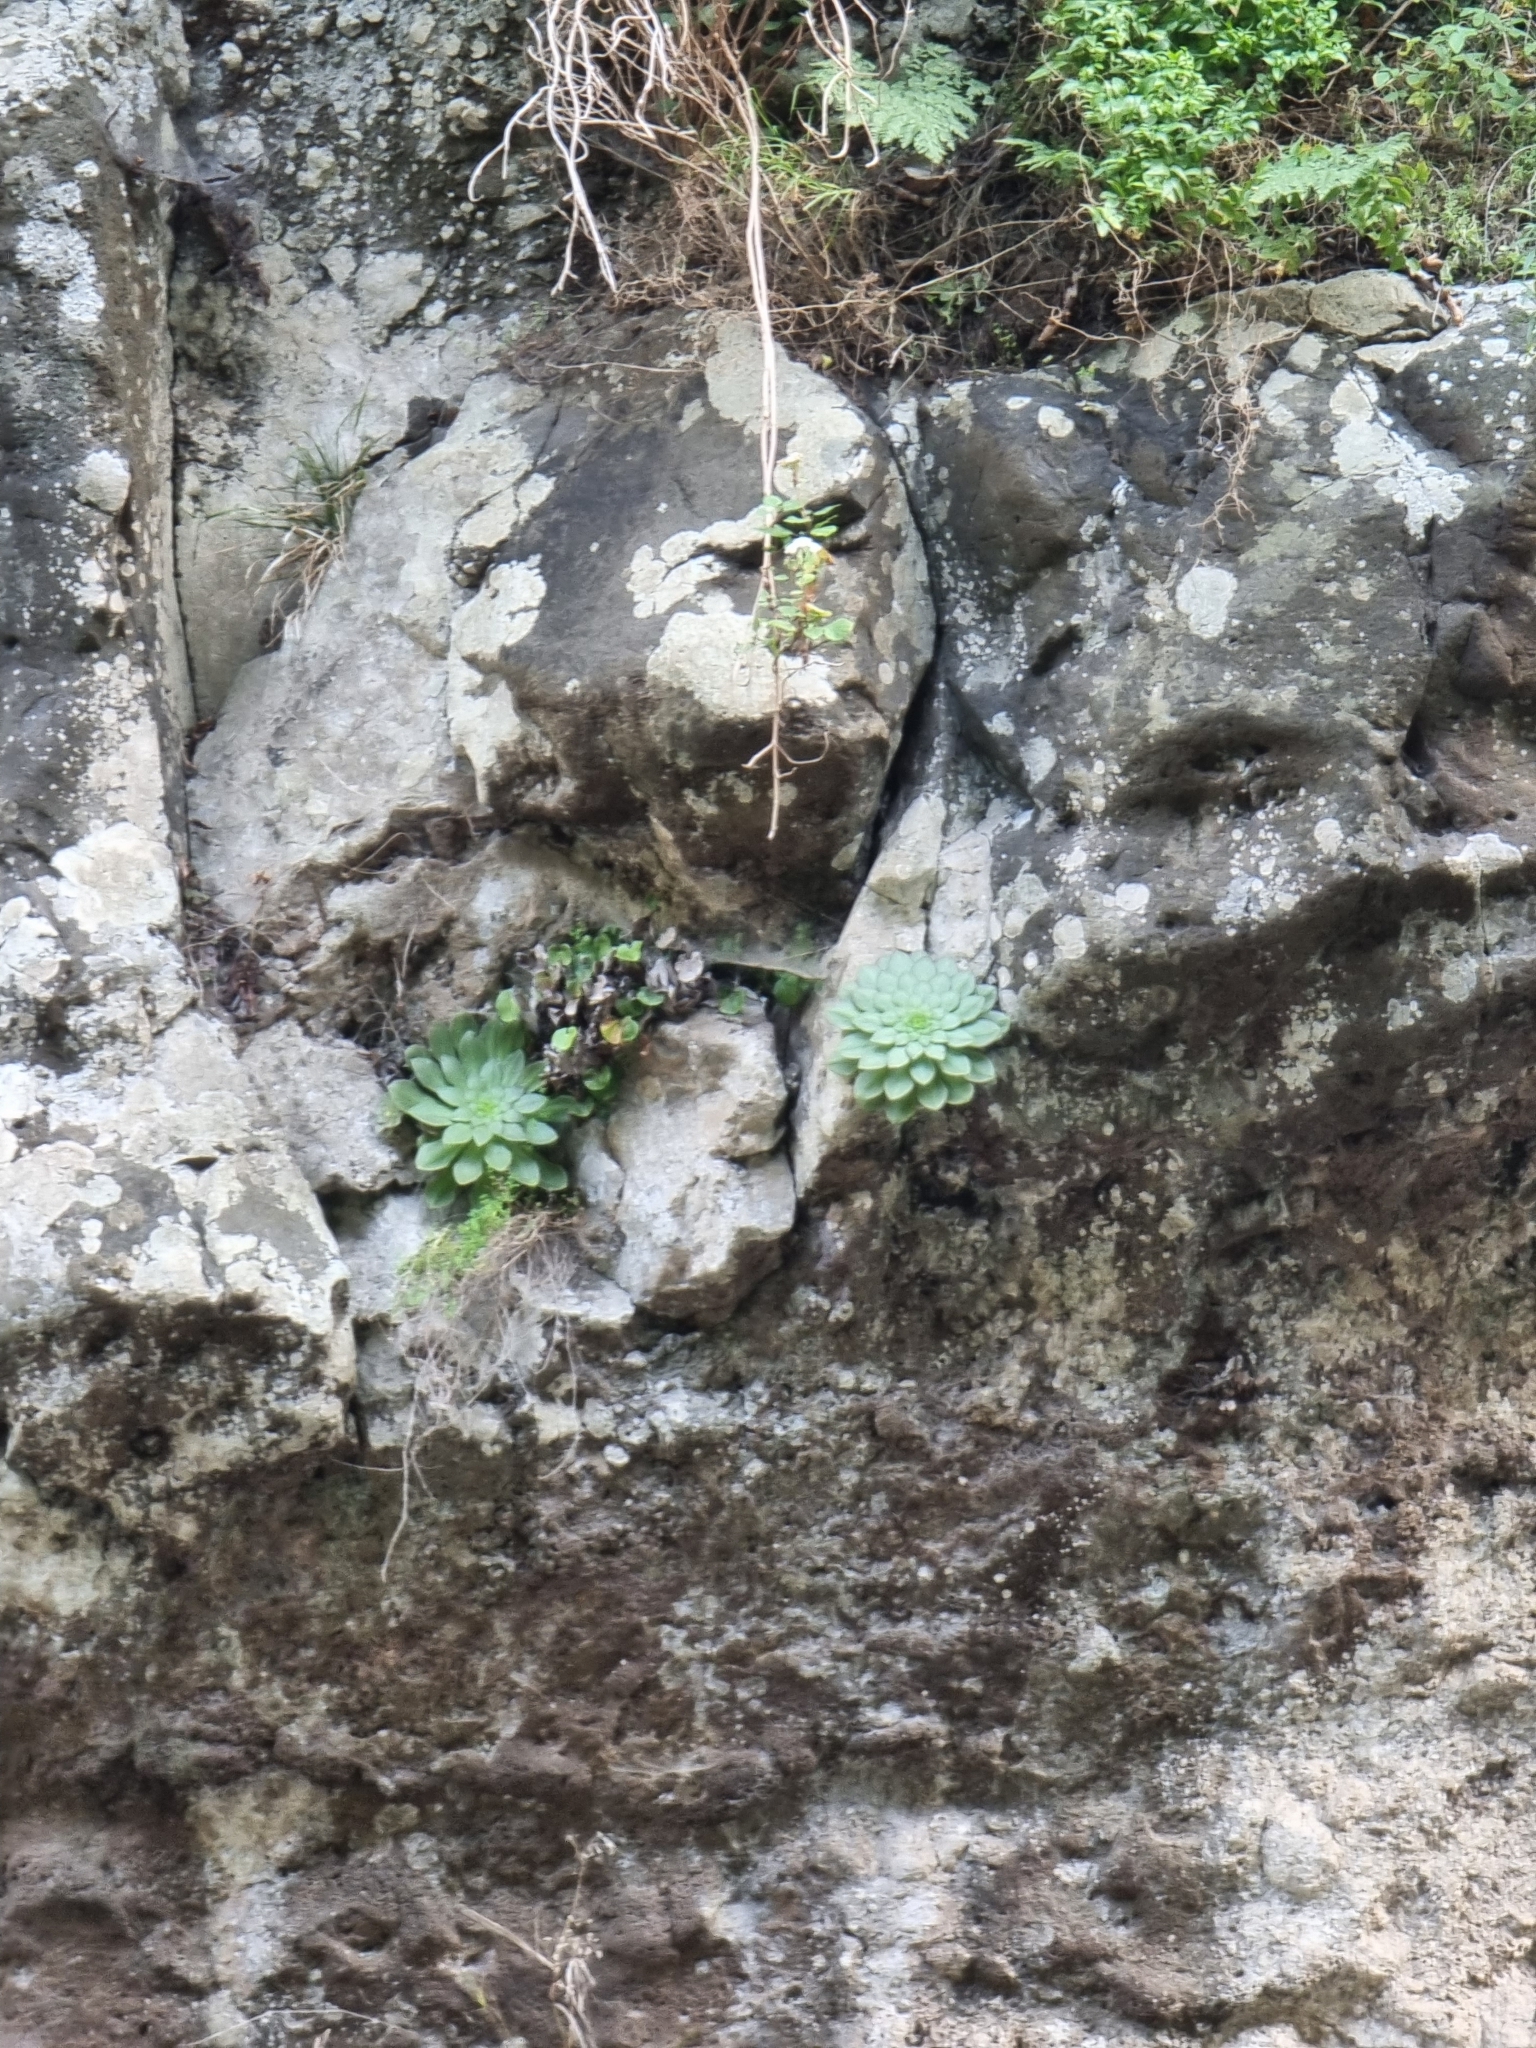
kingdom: Plantae
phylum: Tracheophyta
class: Magnoliopsida
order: Saxifragales
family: Crassulaceae
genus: Aeonium
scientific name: Aeonium glandulosum
